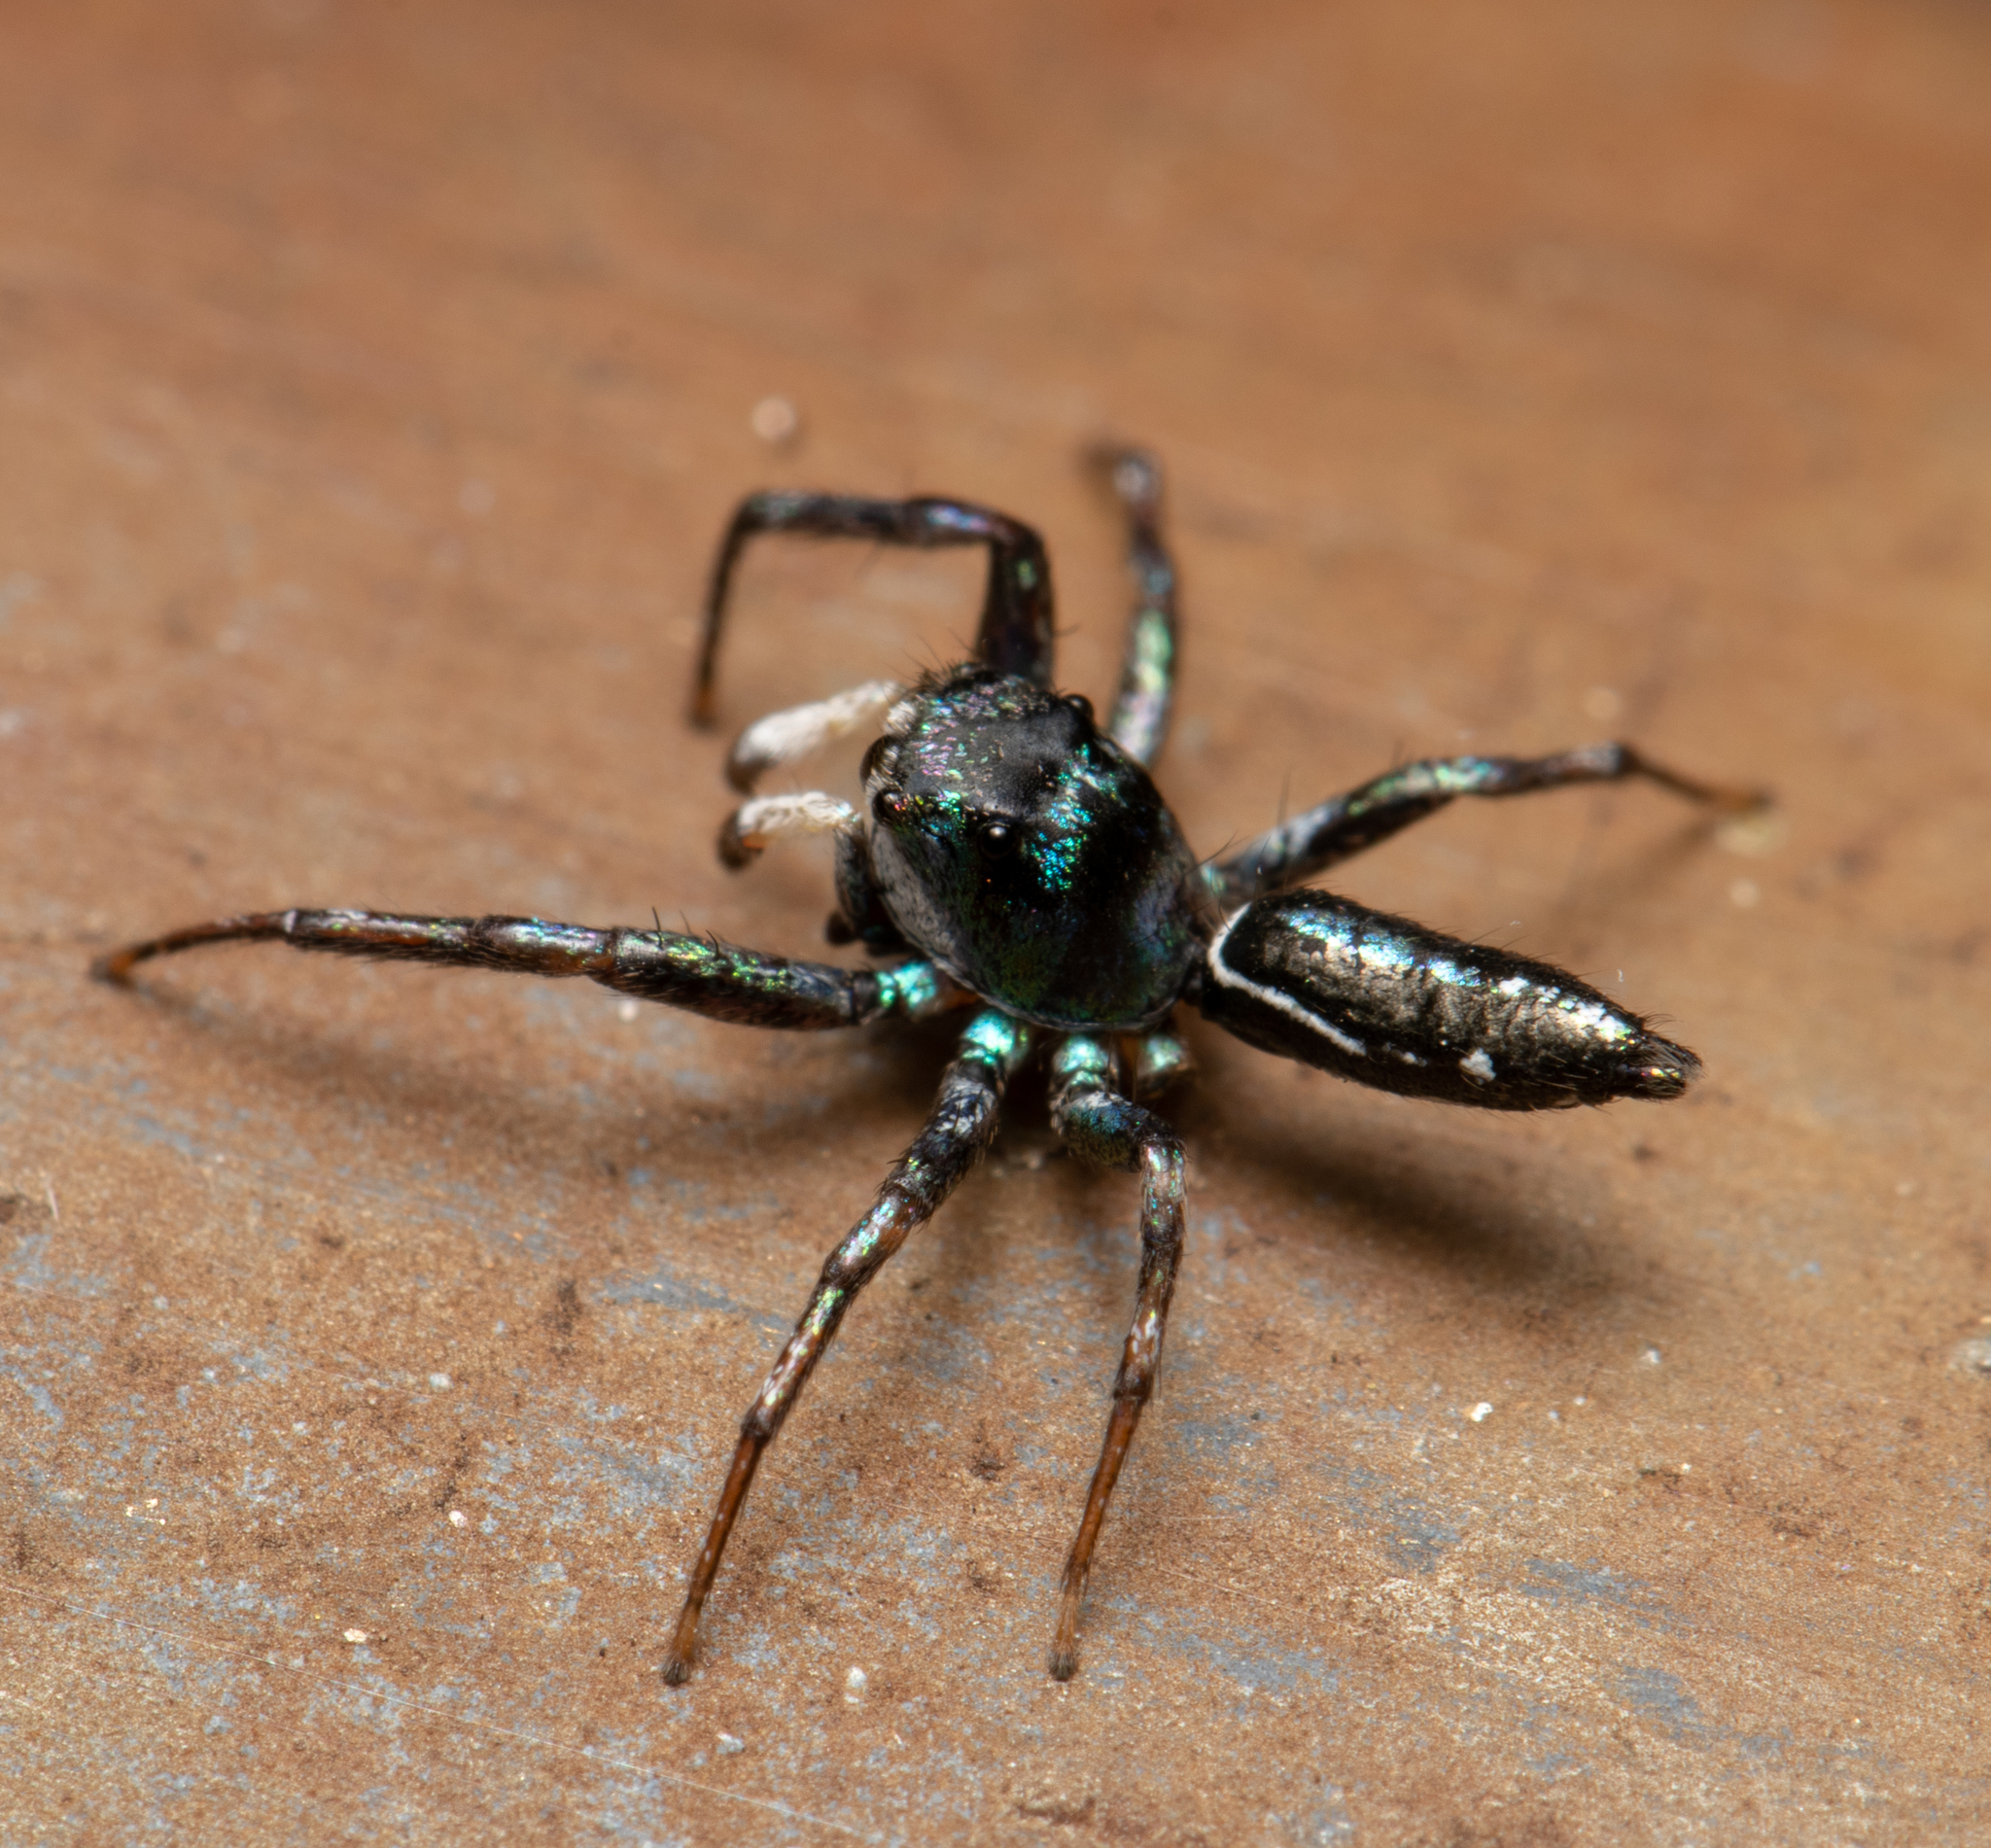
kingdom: Animalia
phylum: Arthropoda
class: Arachnida
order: Araneae
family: Salticidae
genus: Cosmophasis
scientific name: Cosmophasis thalassina
